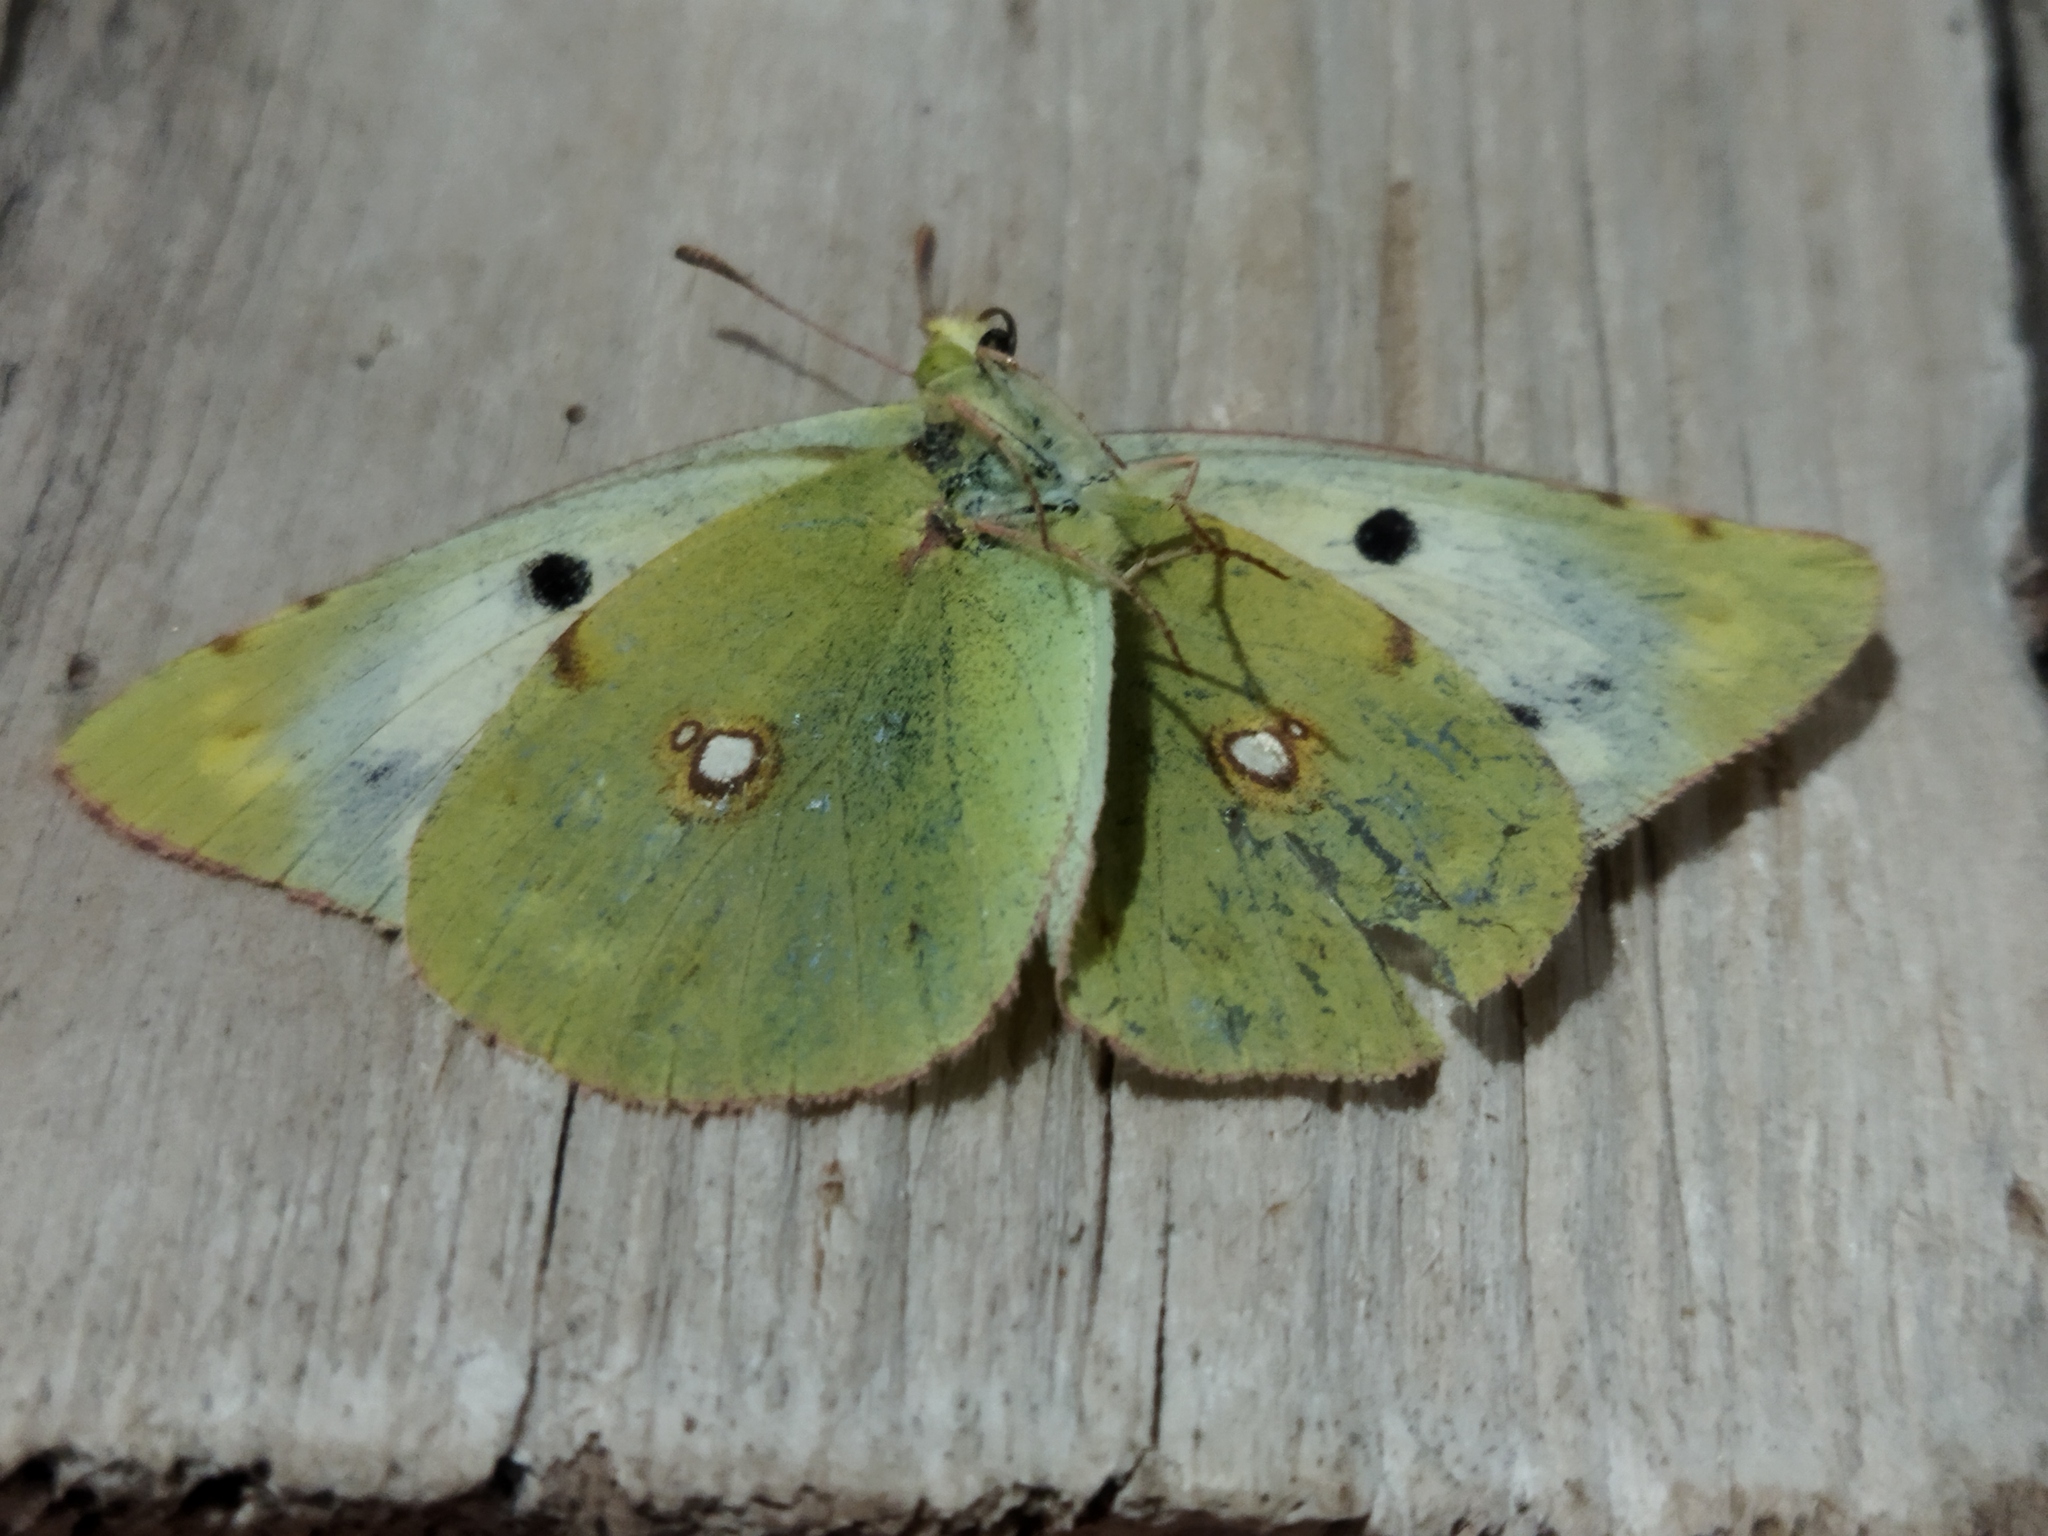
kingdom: Animalia
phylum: Arthropoda
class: Insecta
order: Lepidoptera
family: Pieridae
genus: Colias
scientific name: Colias croceus
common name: Clouded yellow
